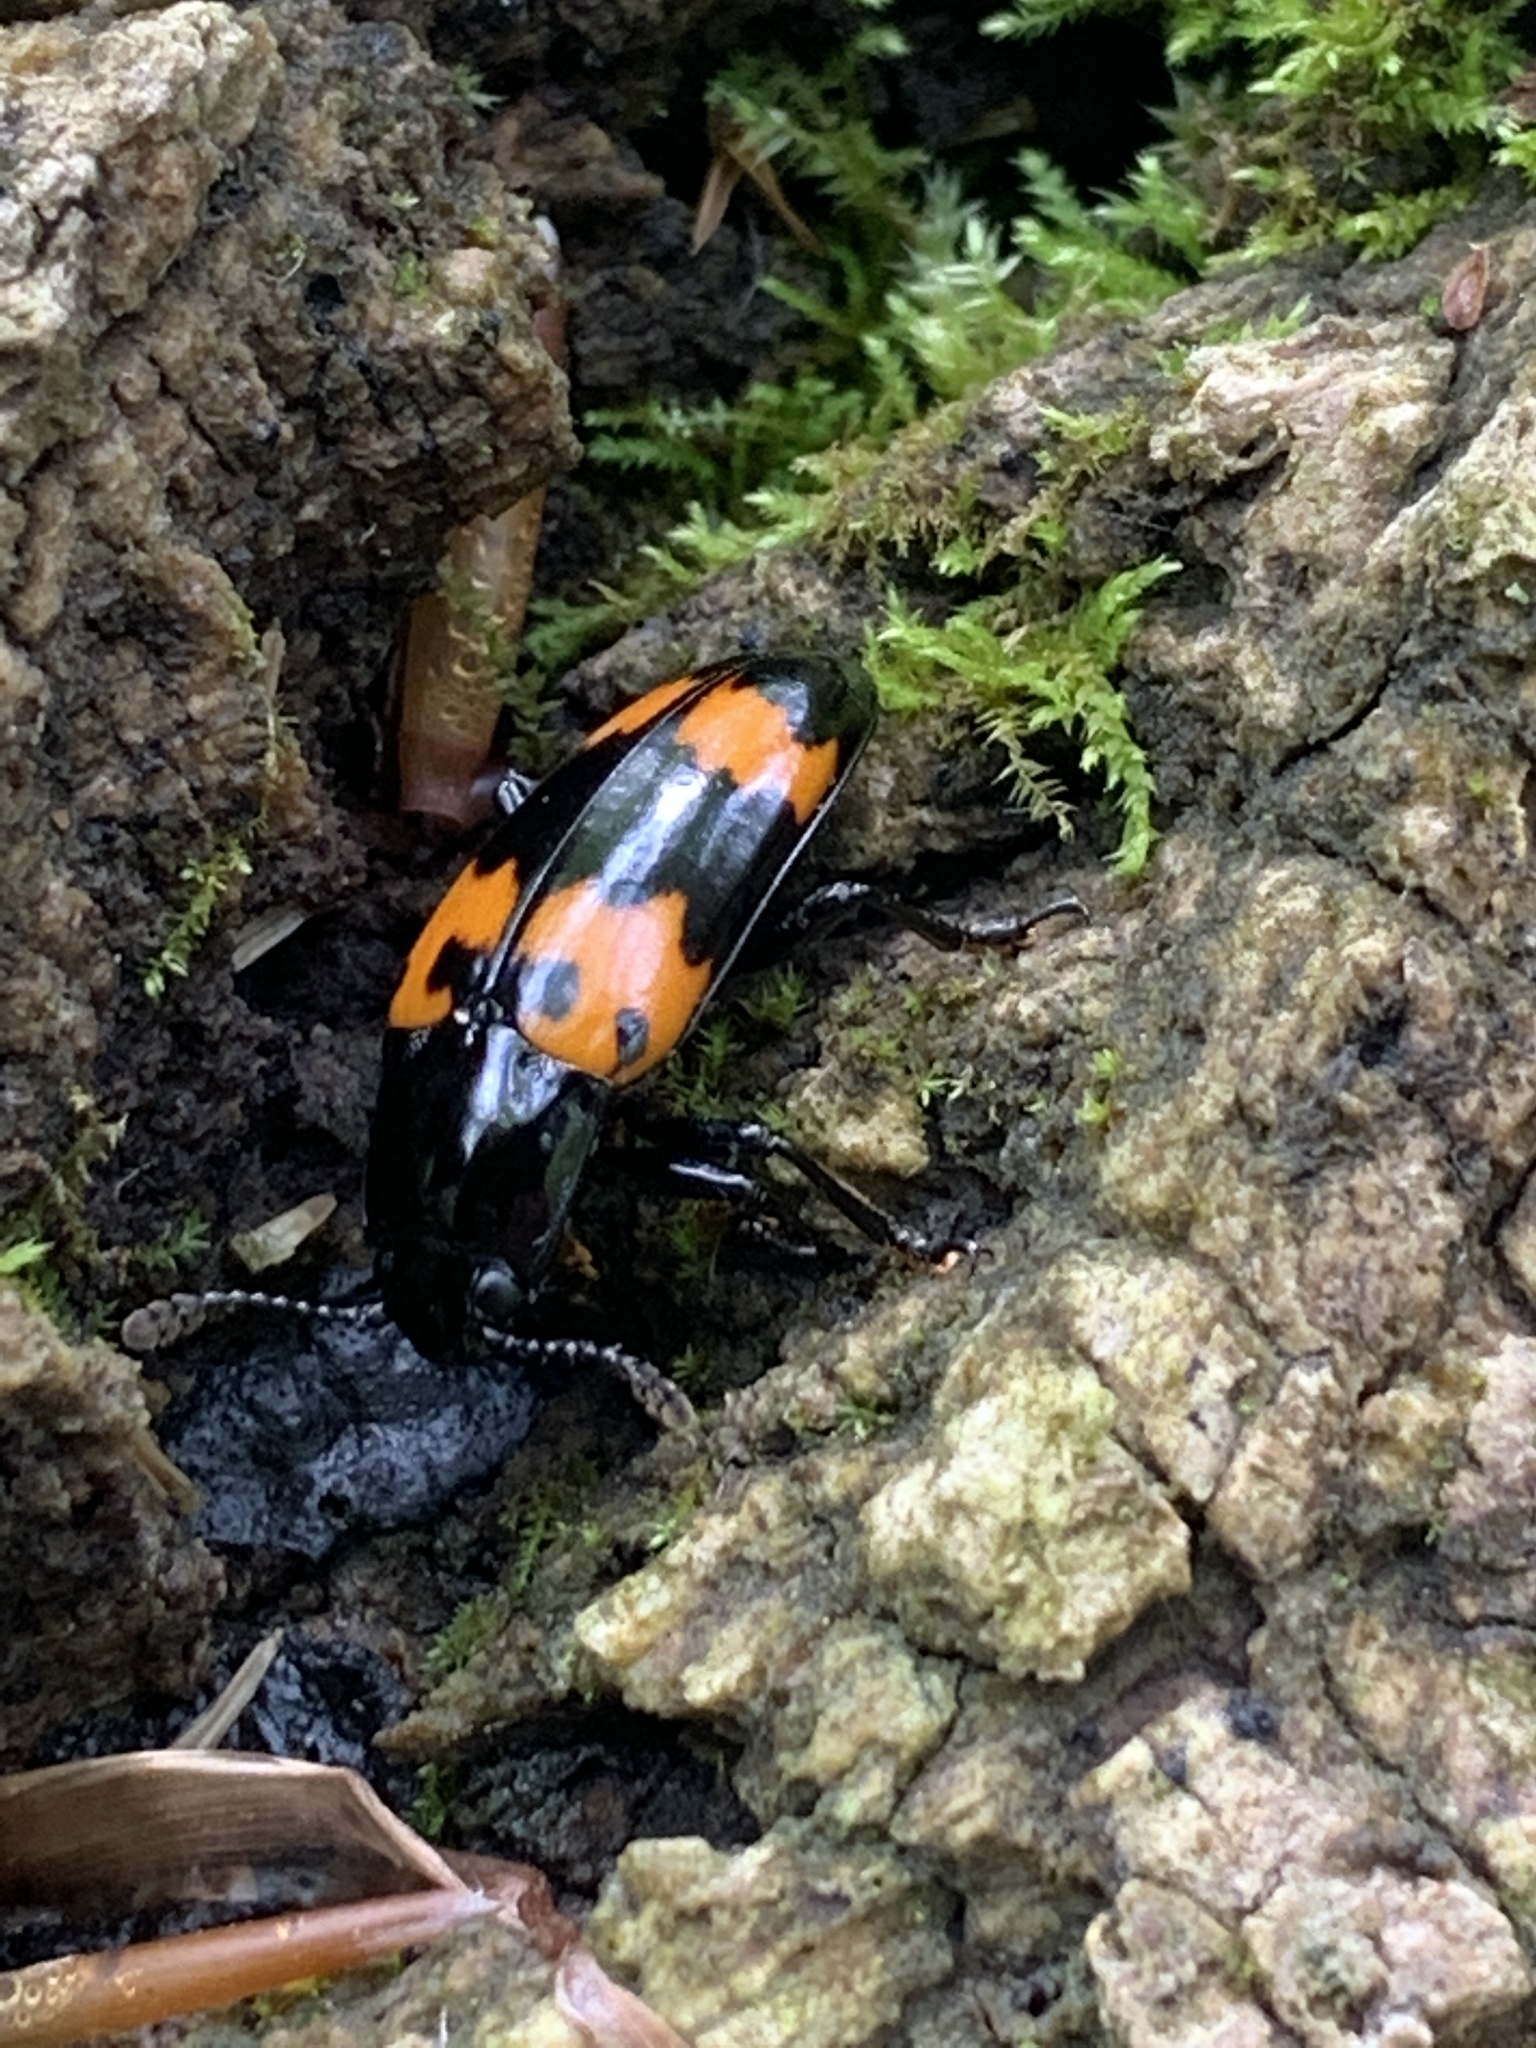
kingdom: Animalia
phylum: Arthropoda
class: Insecta
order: Coleoptera
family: Erotylidae
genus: Megalodacne
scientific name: Megalodacne heros
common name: Pleasing fungus beetle
